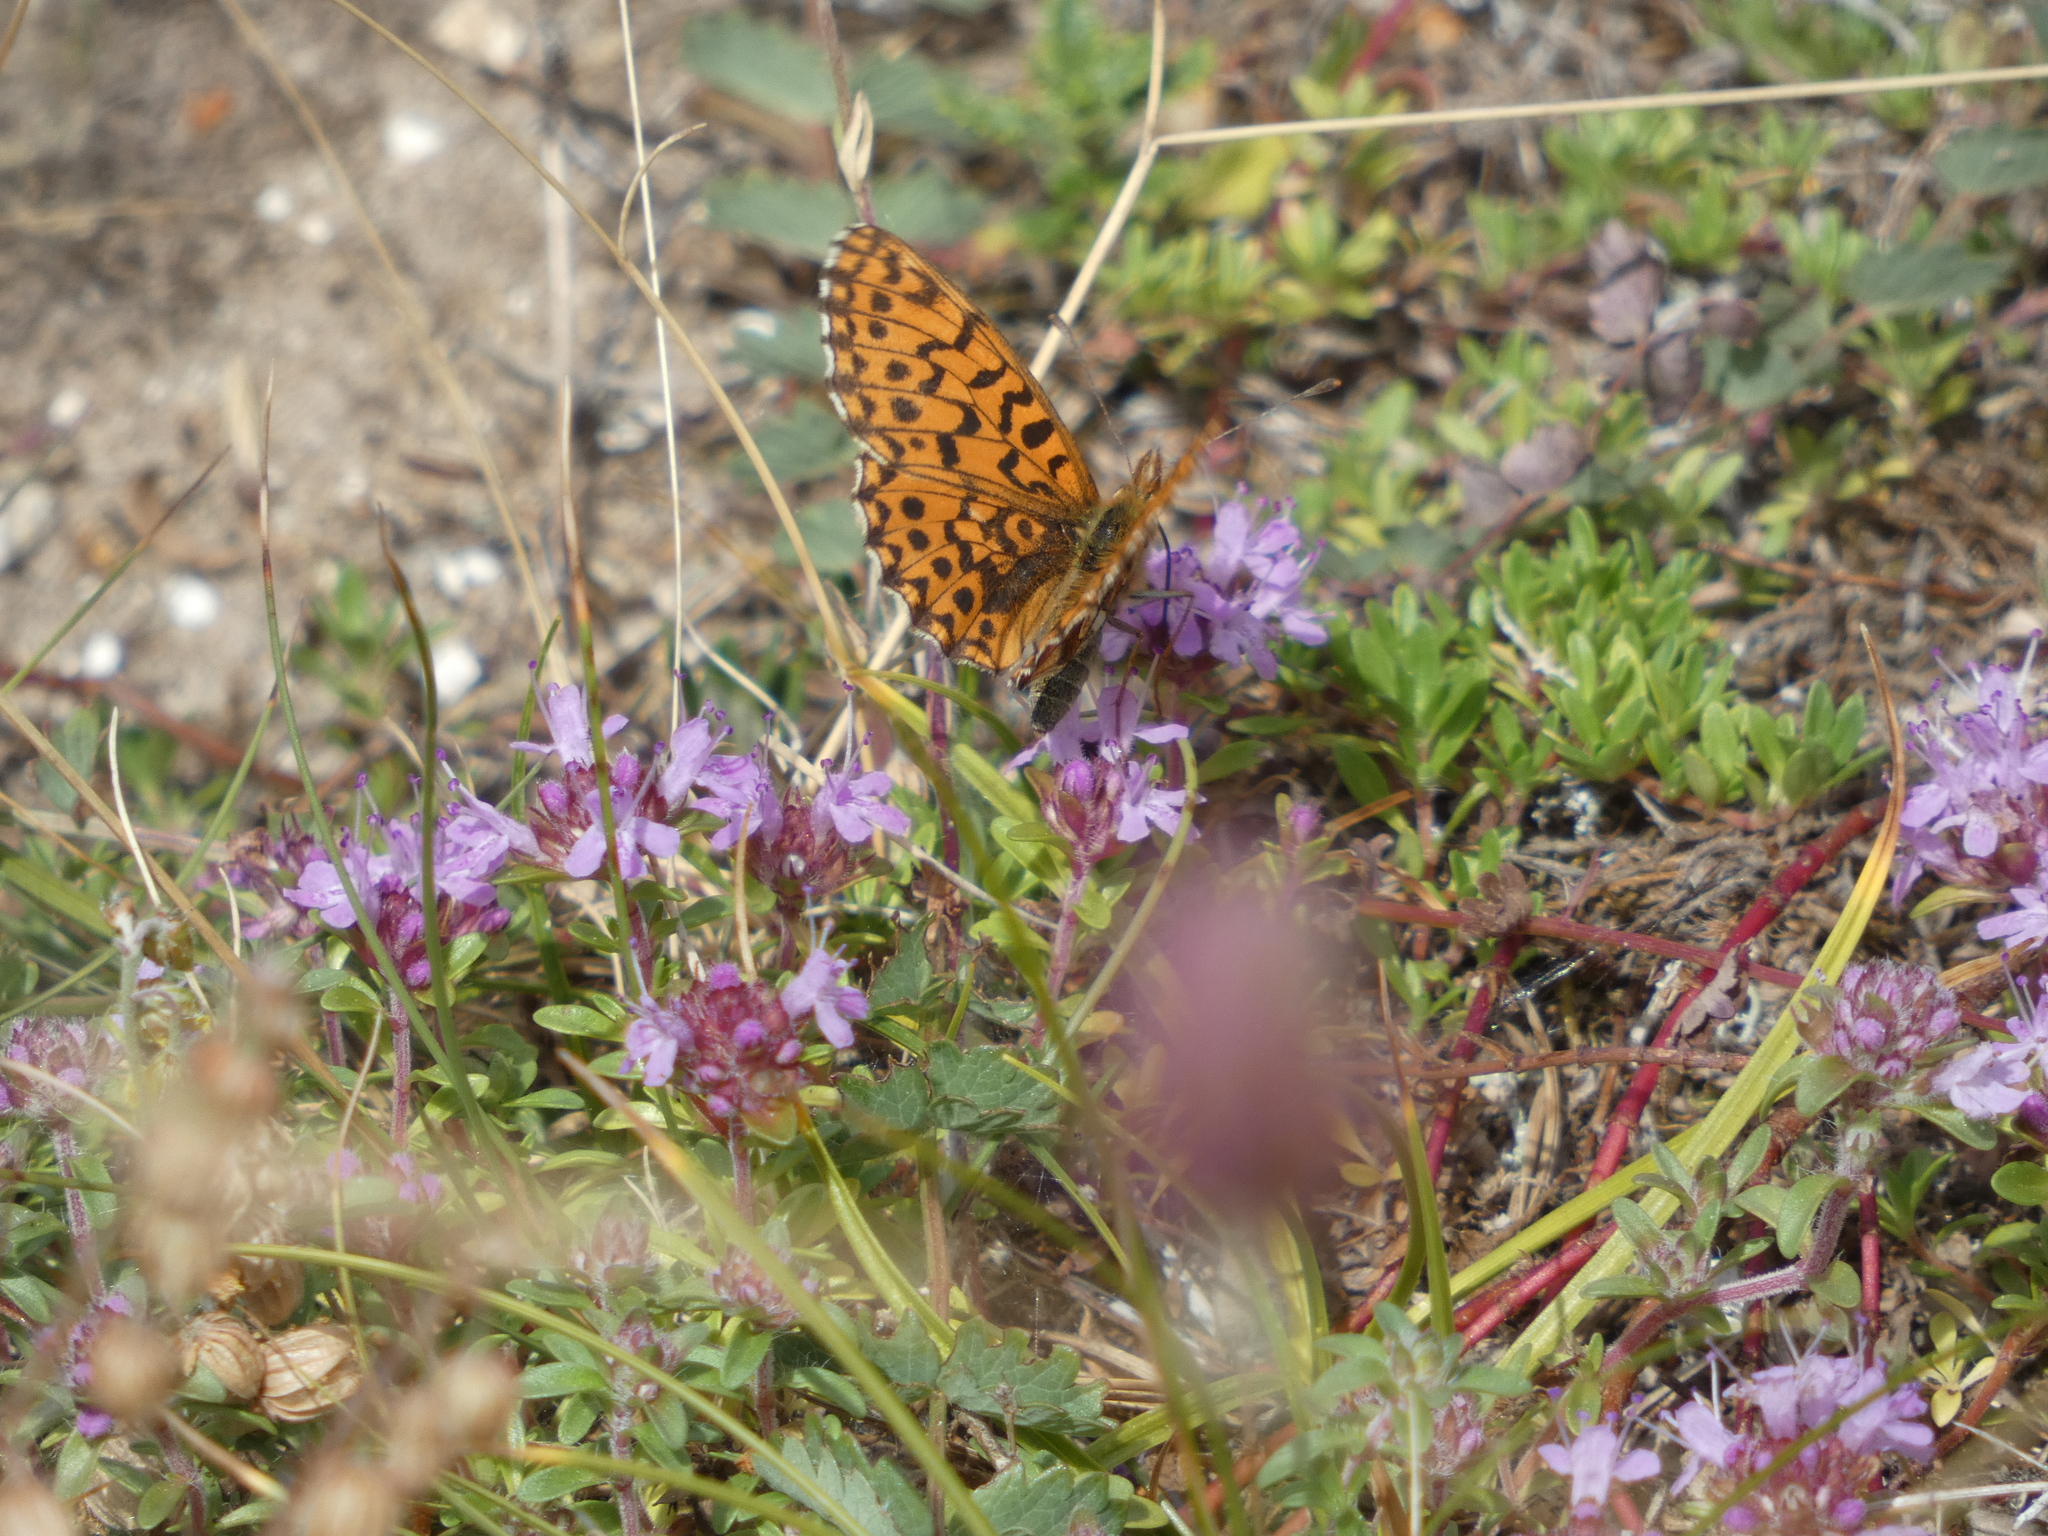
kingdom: Animalia
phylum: Arthropoda
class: Insecta
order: Lepidoptera
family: Nymphalidae
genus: Boloria
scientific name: Boloria dia
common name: Weaver's fritillary
